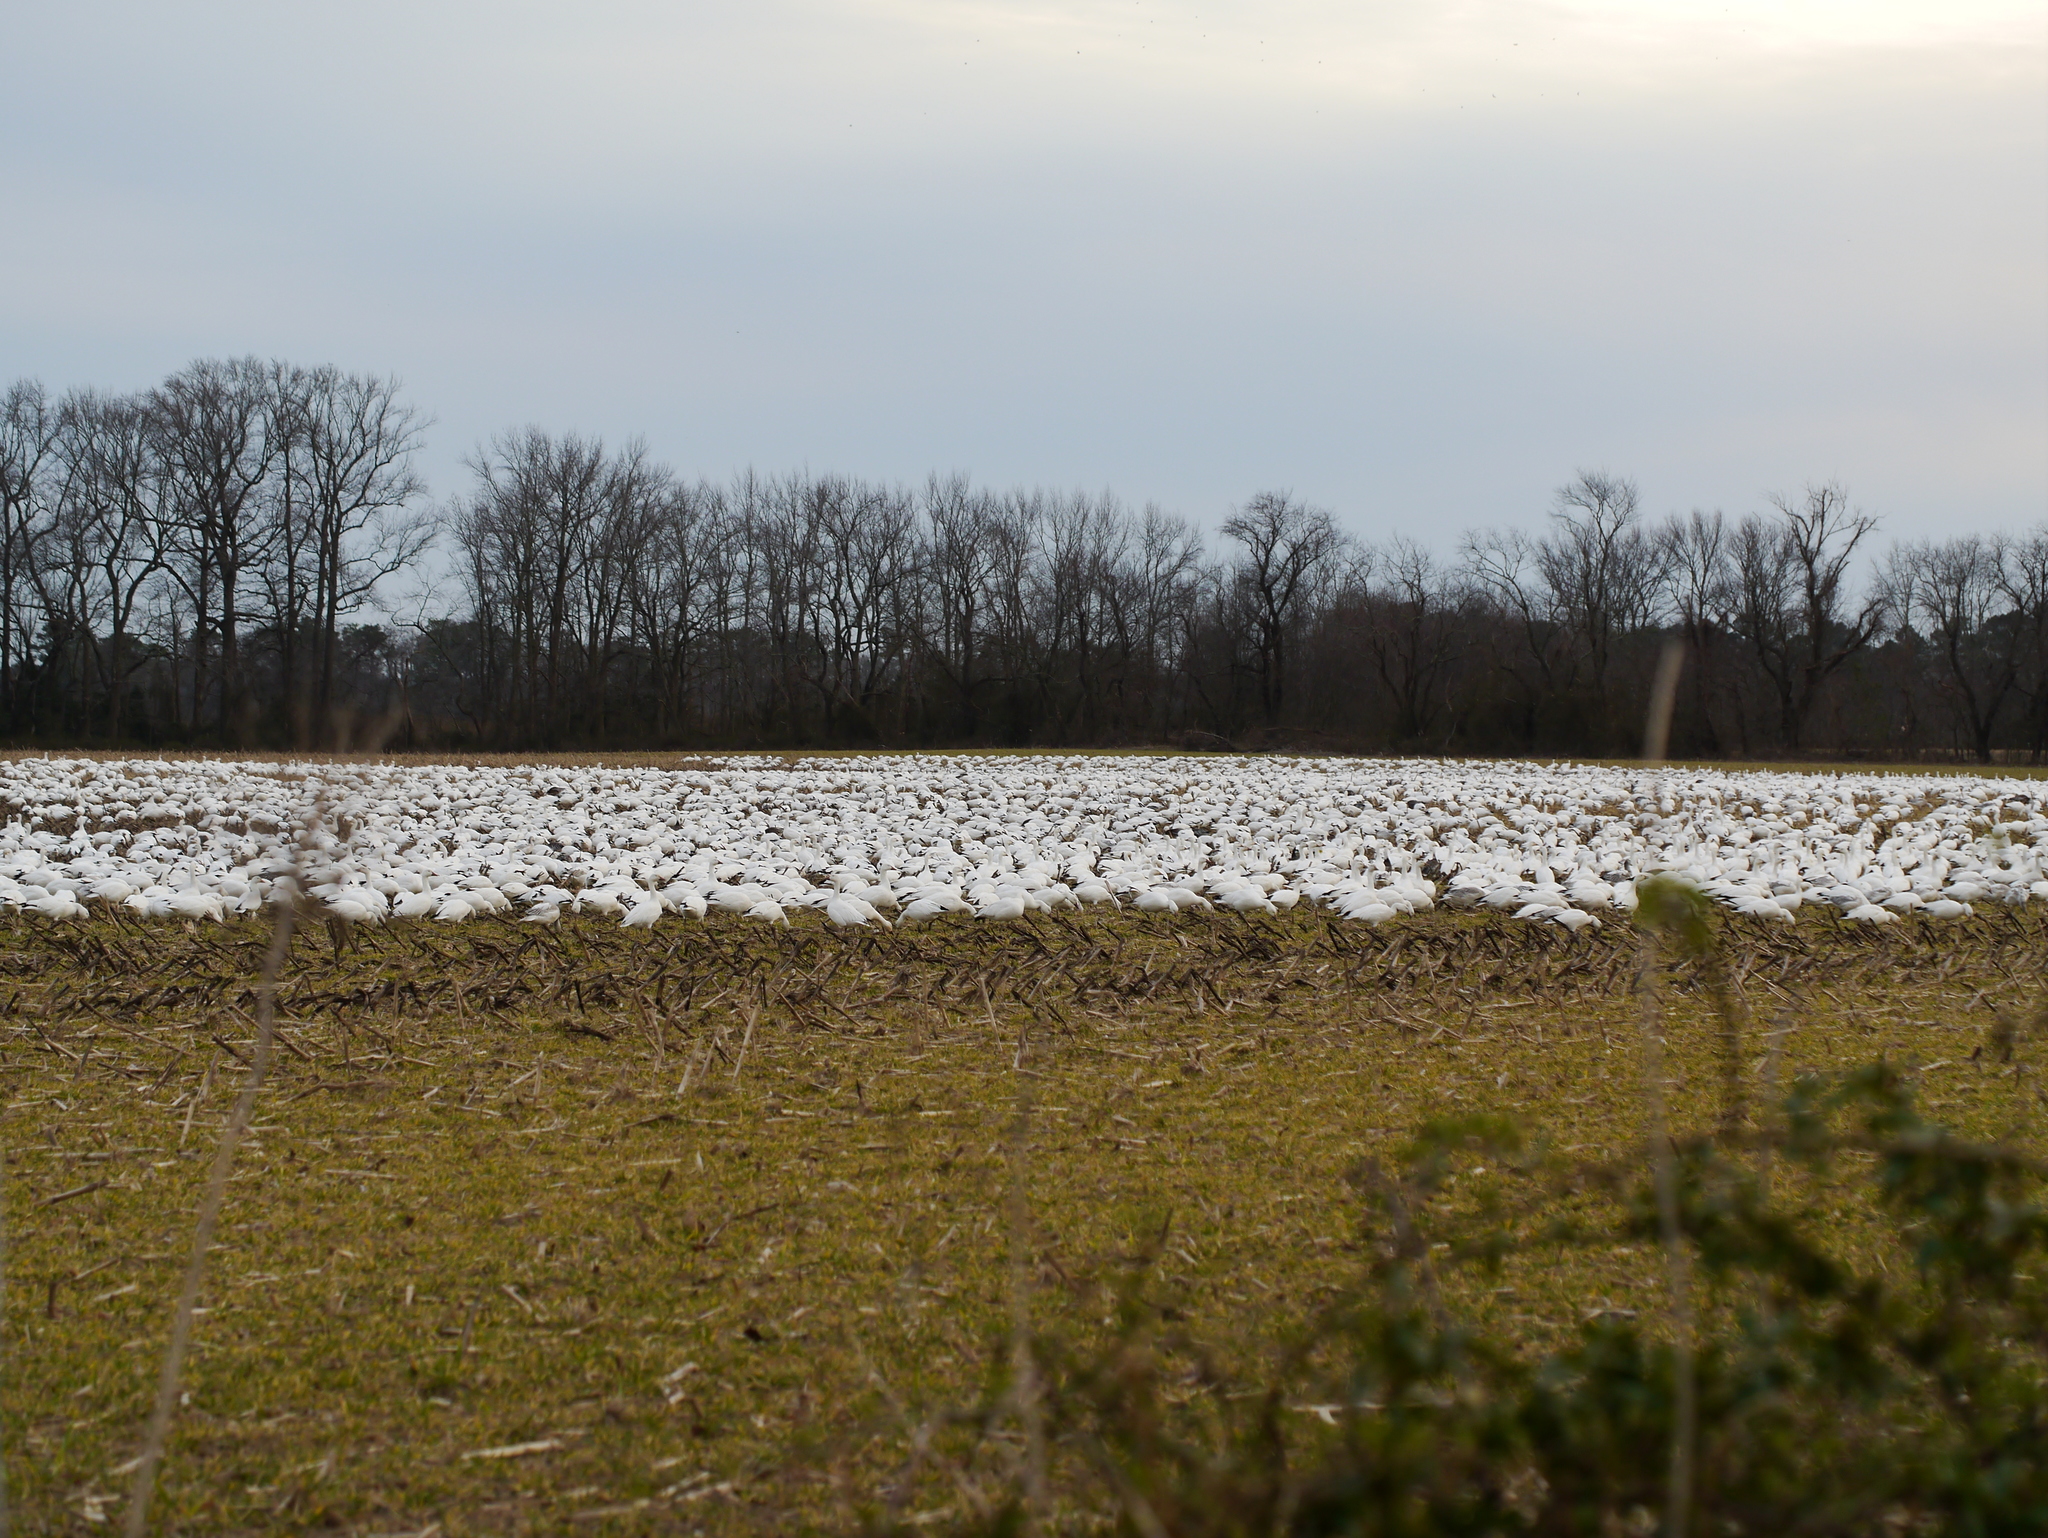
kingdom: Animalia
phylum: Chordata
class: Aves
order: Anseriformes
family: Anatidae
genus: Anser
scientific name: Anser caerulescens
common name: Snow goose
